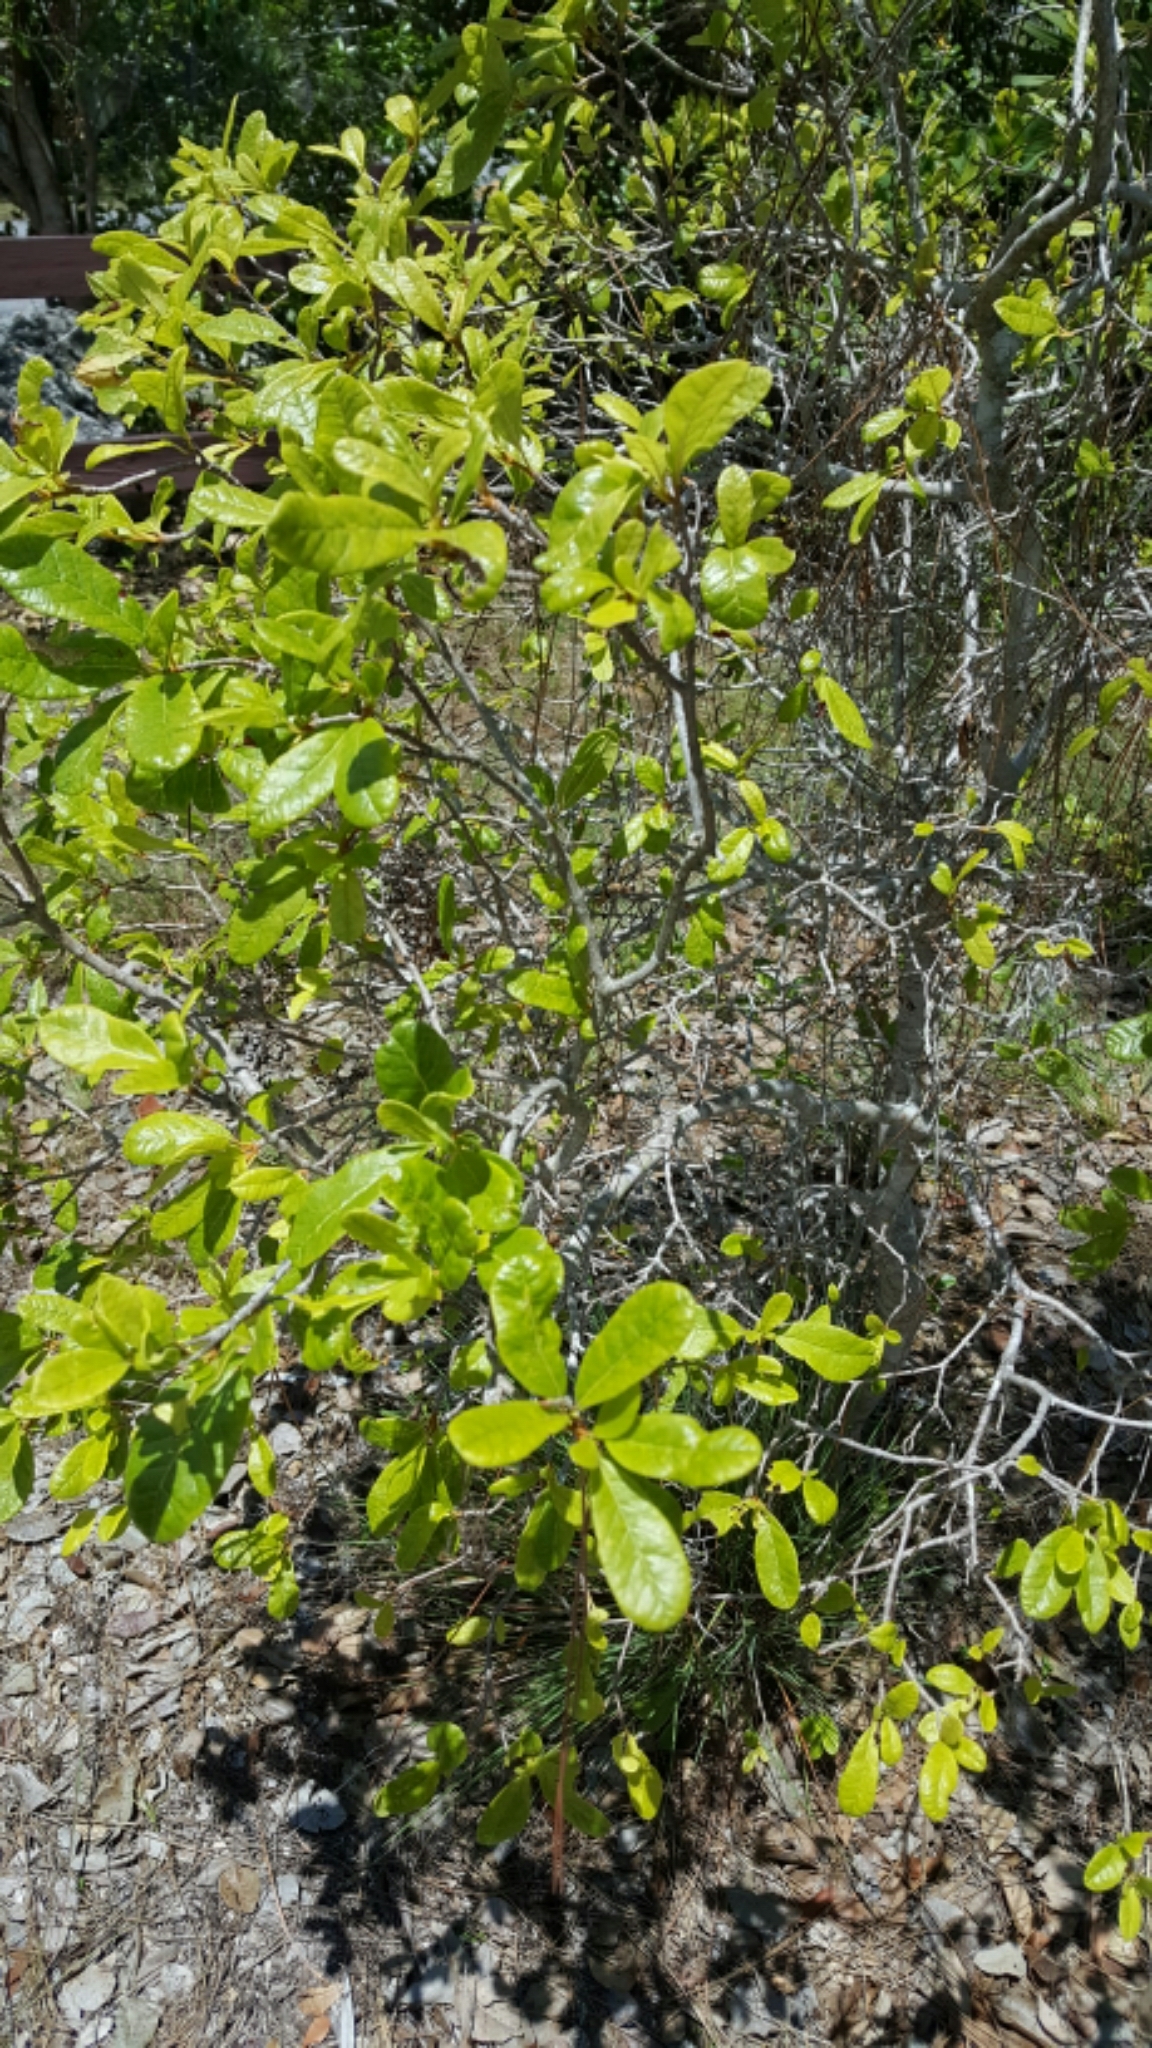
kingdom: Plantae
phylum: Tracheophyta
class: Magnoliopsida
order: Caryophyllales
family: Nyctaginaceae
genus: Pisonia
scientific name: Pisonia rotundata
